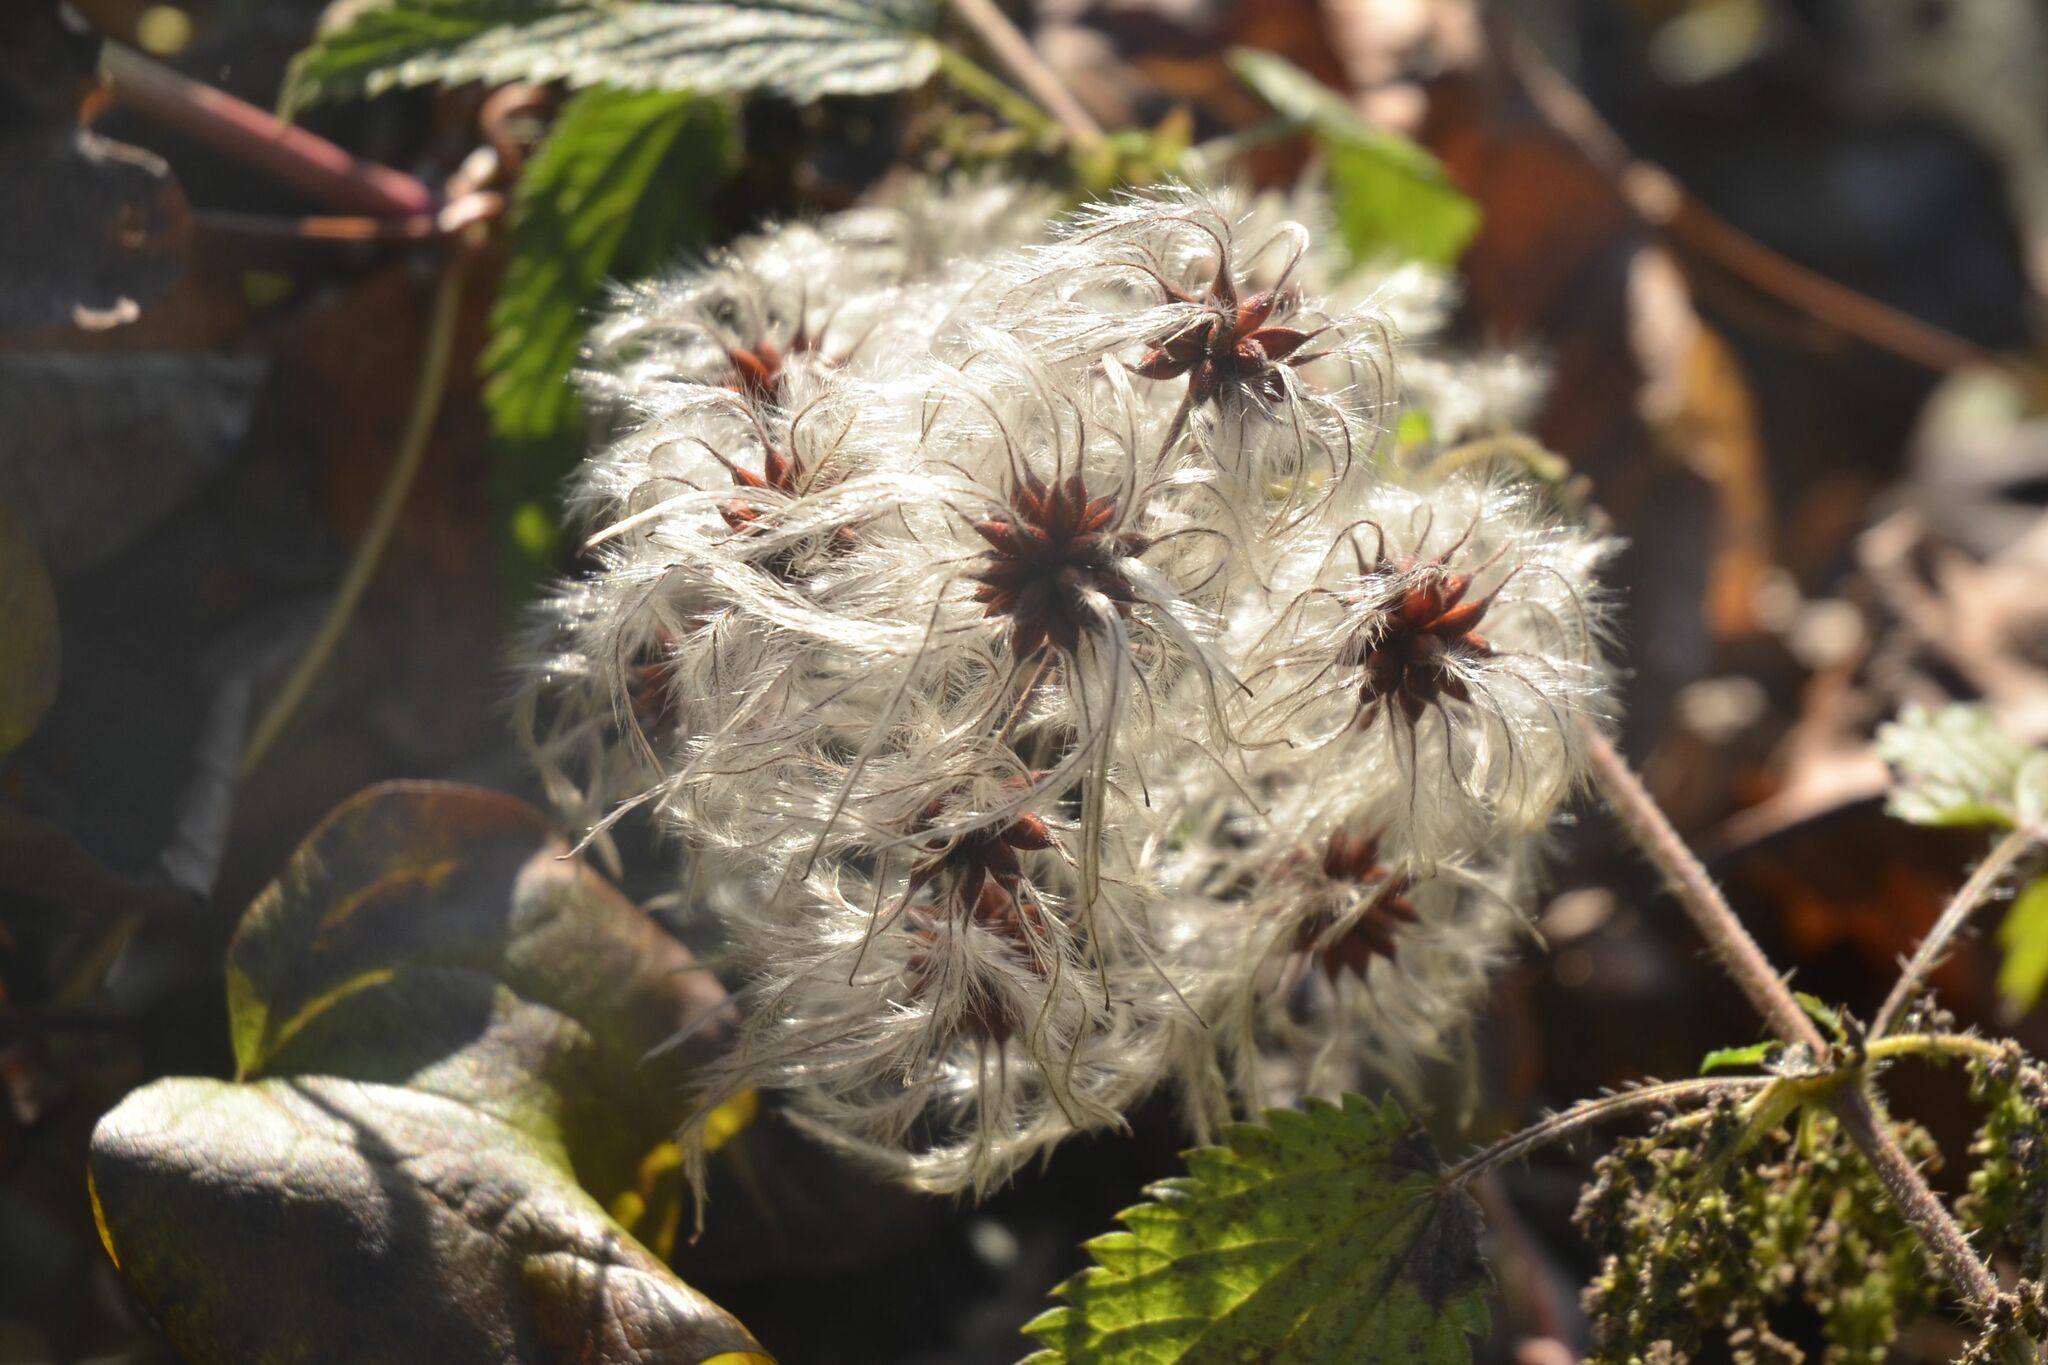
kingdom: Plantae
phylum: Tracheophyta
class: Magnoliopsida
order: Ranunculales
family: Ranunculaceae
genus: Clematis
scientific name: Clematis vitalba
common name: Evergreen clematis
